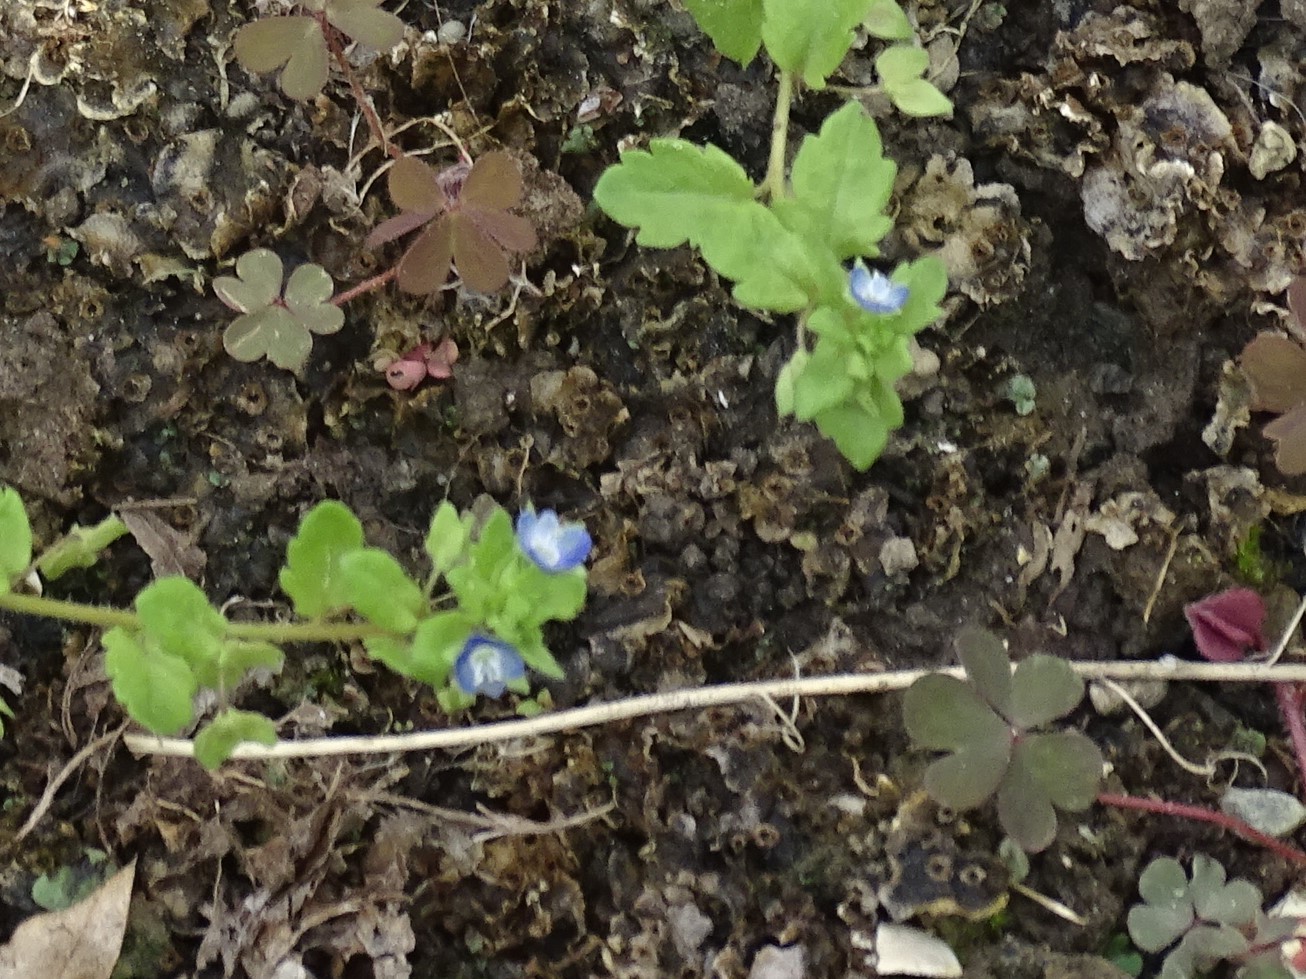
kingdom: Plantae
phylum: Tracheophyta
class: Magnoliopsida
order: Lamiales
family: Plantaginaceae
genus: Veronica
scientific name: Veronica polita
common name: Grey field-speedwell
